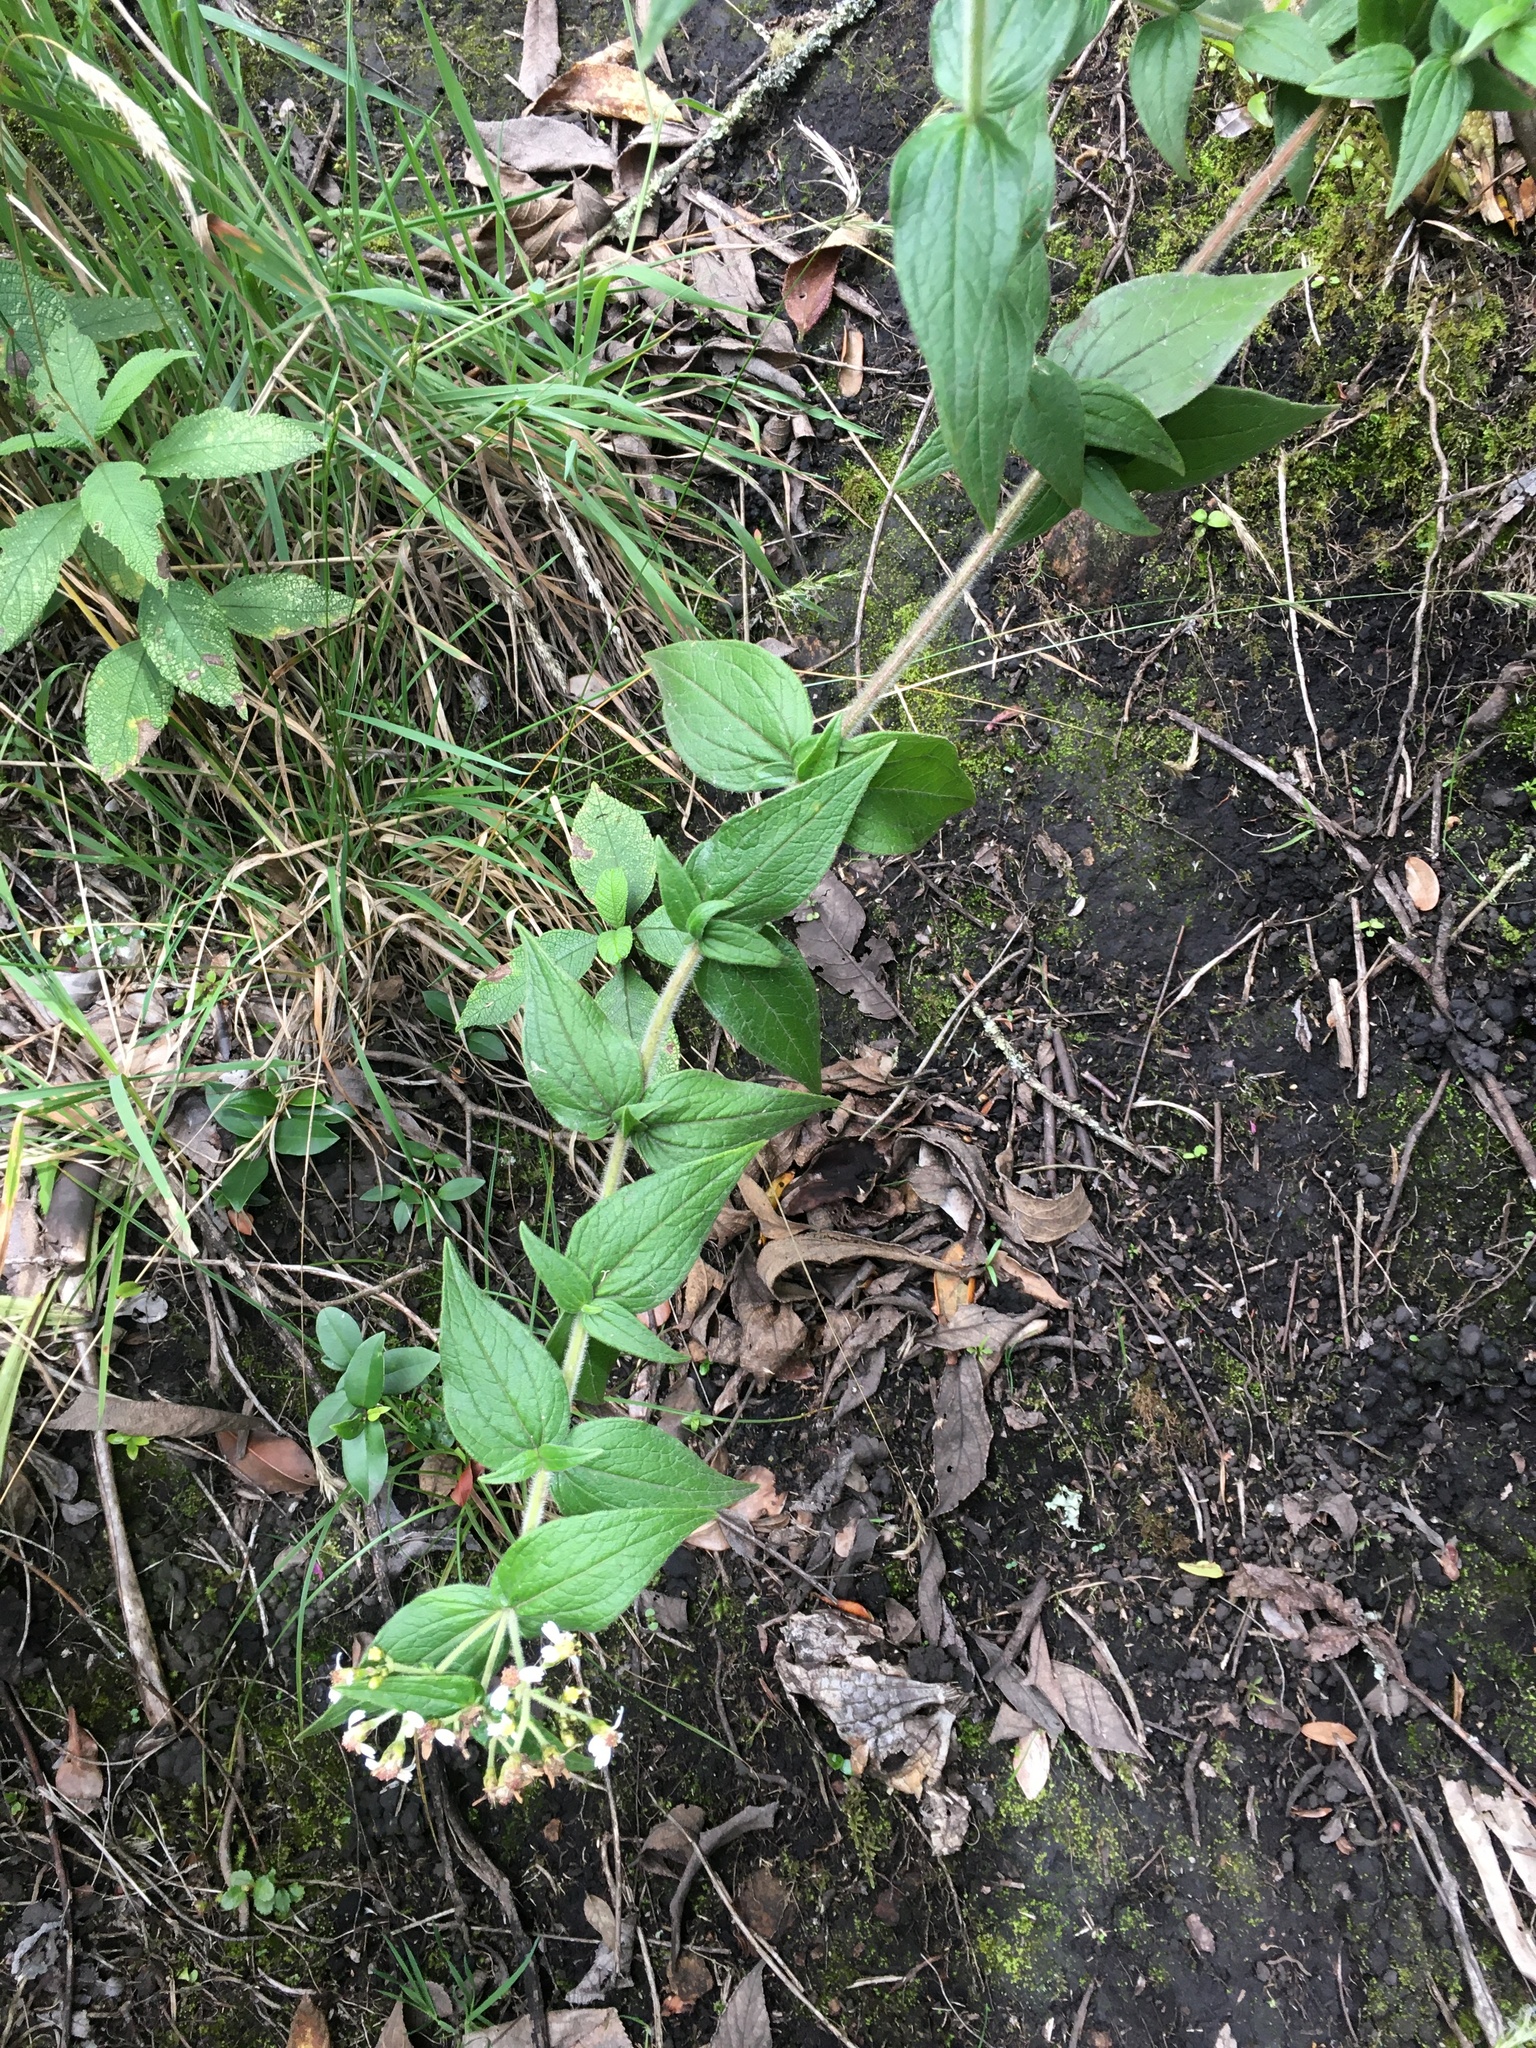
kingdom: Plantae
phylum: Tracheophyta
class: Magnoliopsida
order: Asterales
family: Asteraceae
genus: Alloispermum
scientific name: Alloispermum caracasanum
